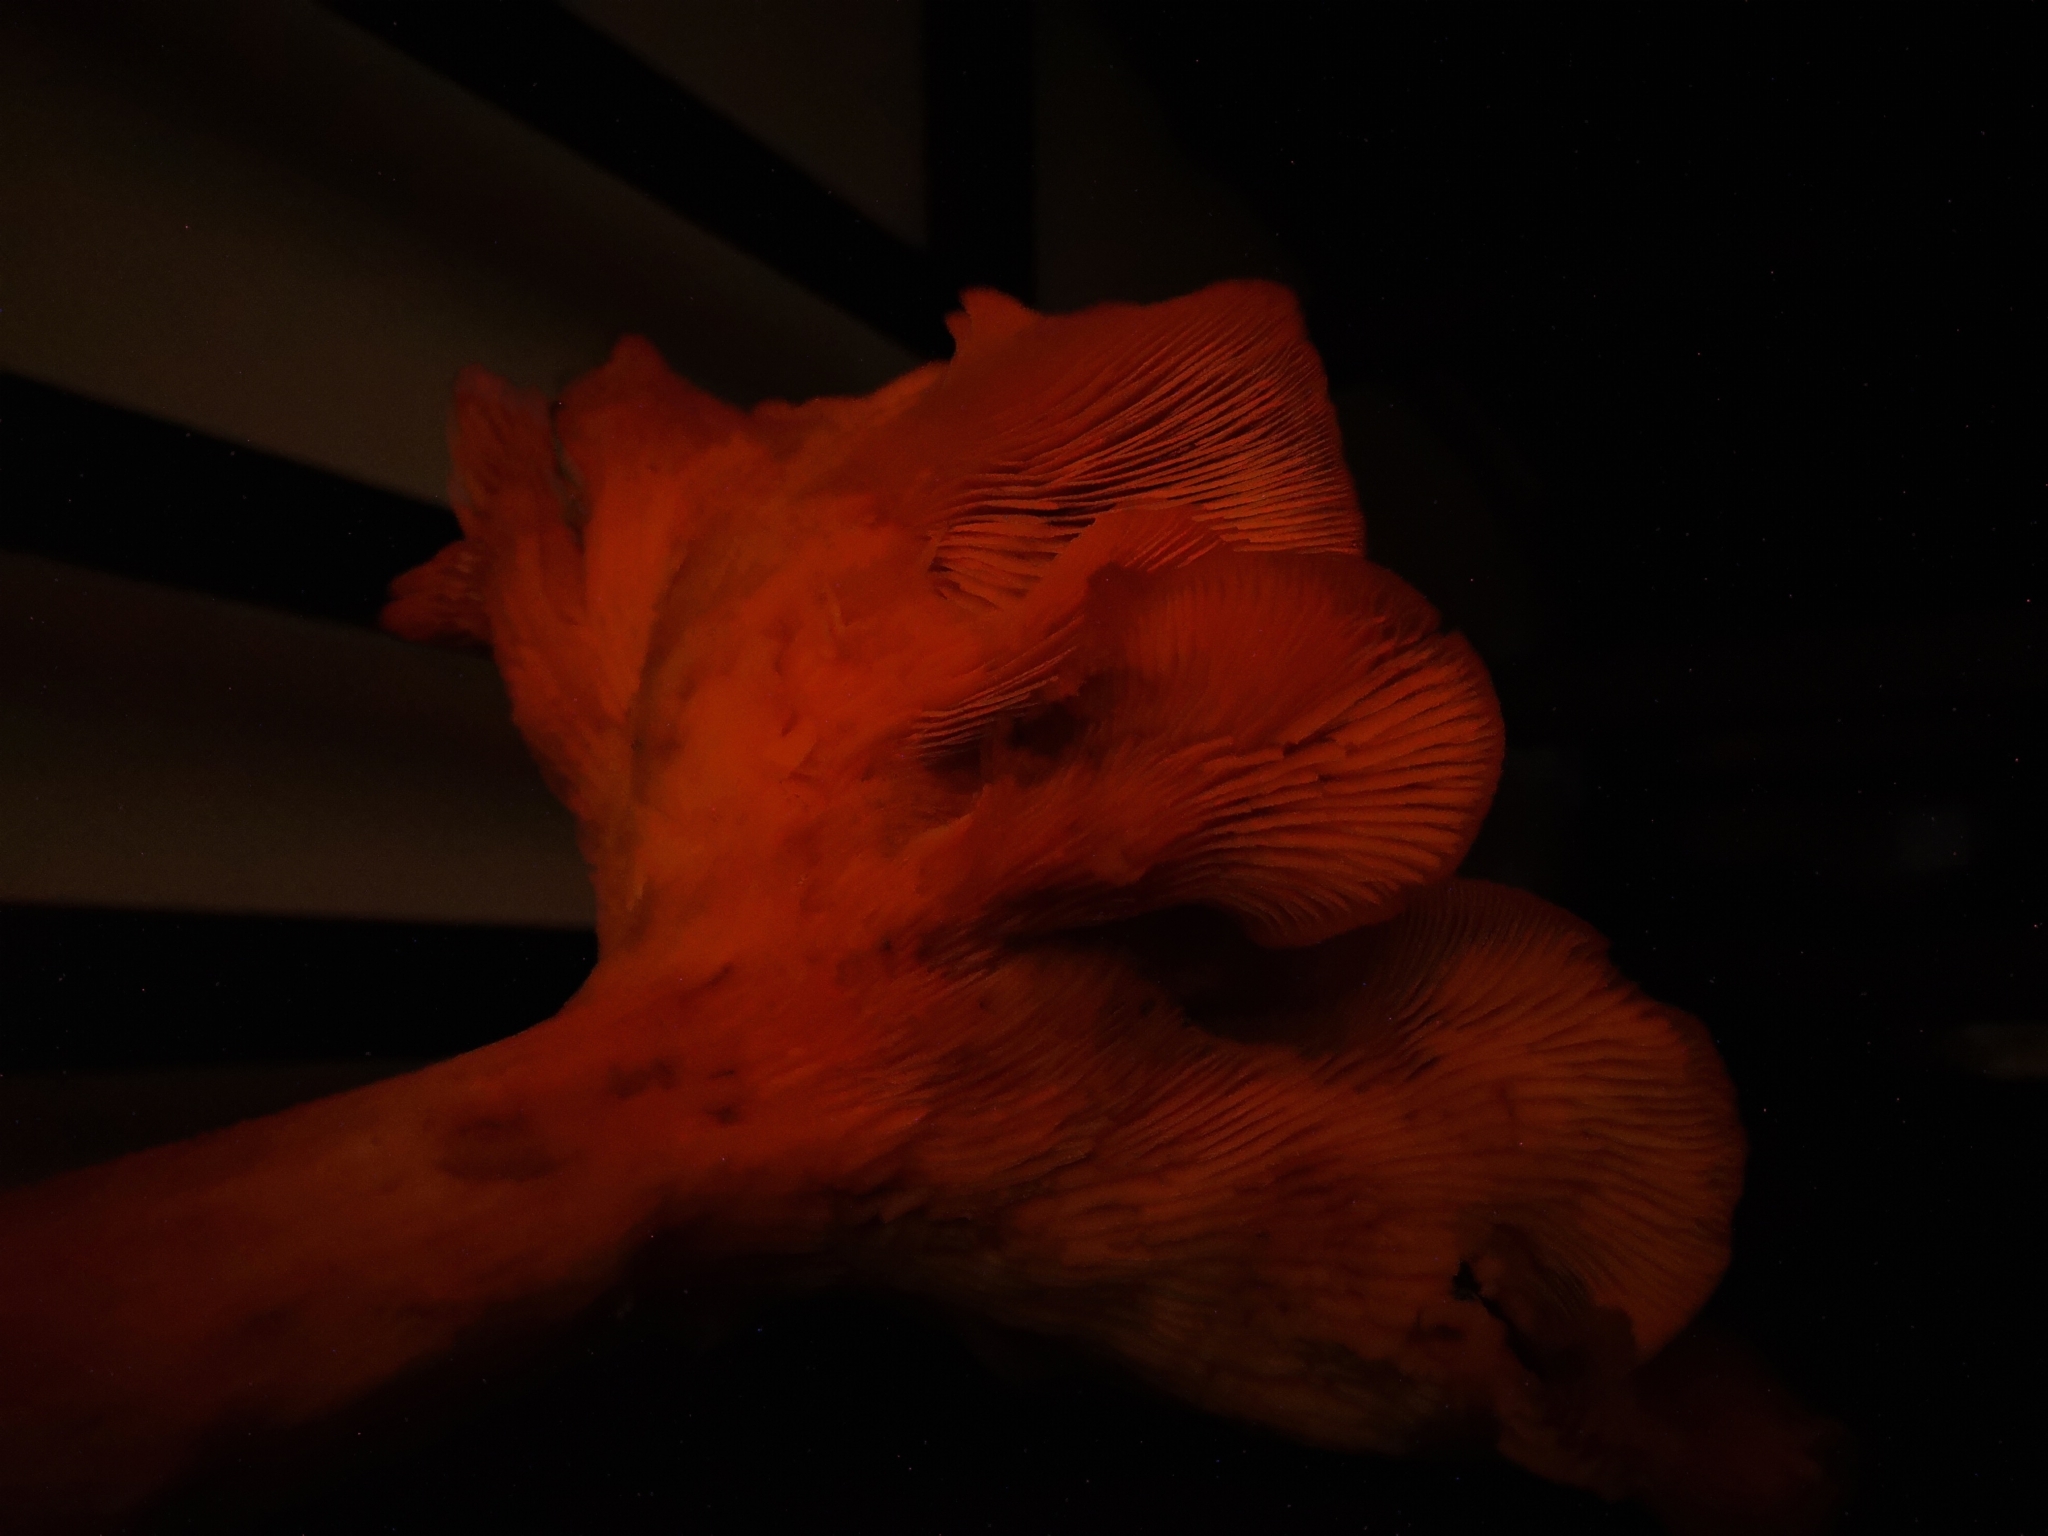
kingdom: Fungi
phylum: Basidiomycota
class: Agaricomycetes
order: Agaricales
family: Omphalotaceae
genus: Omphalotus
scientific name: Omphalotus illudens
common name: Jack o lantern
